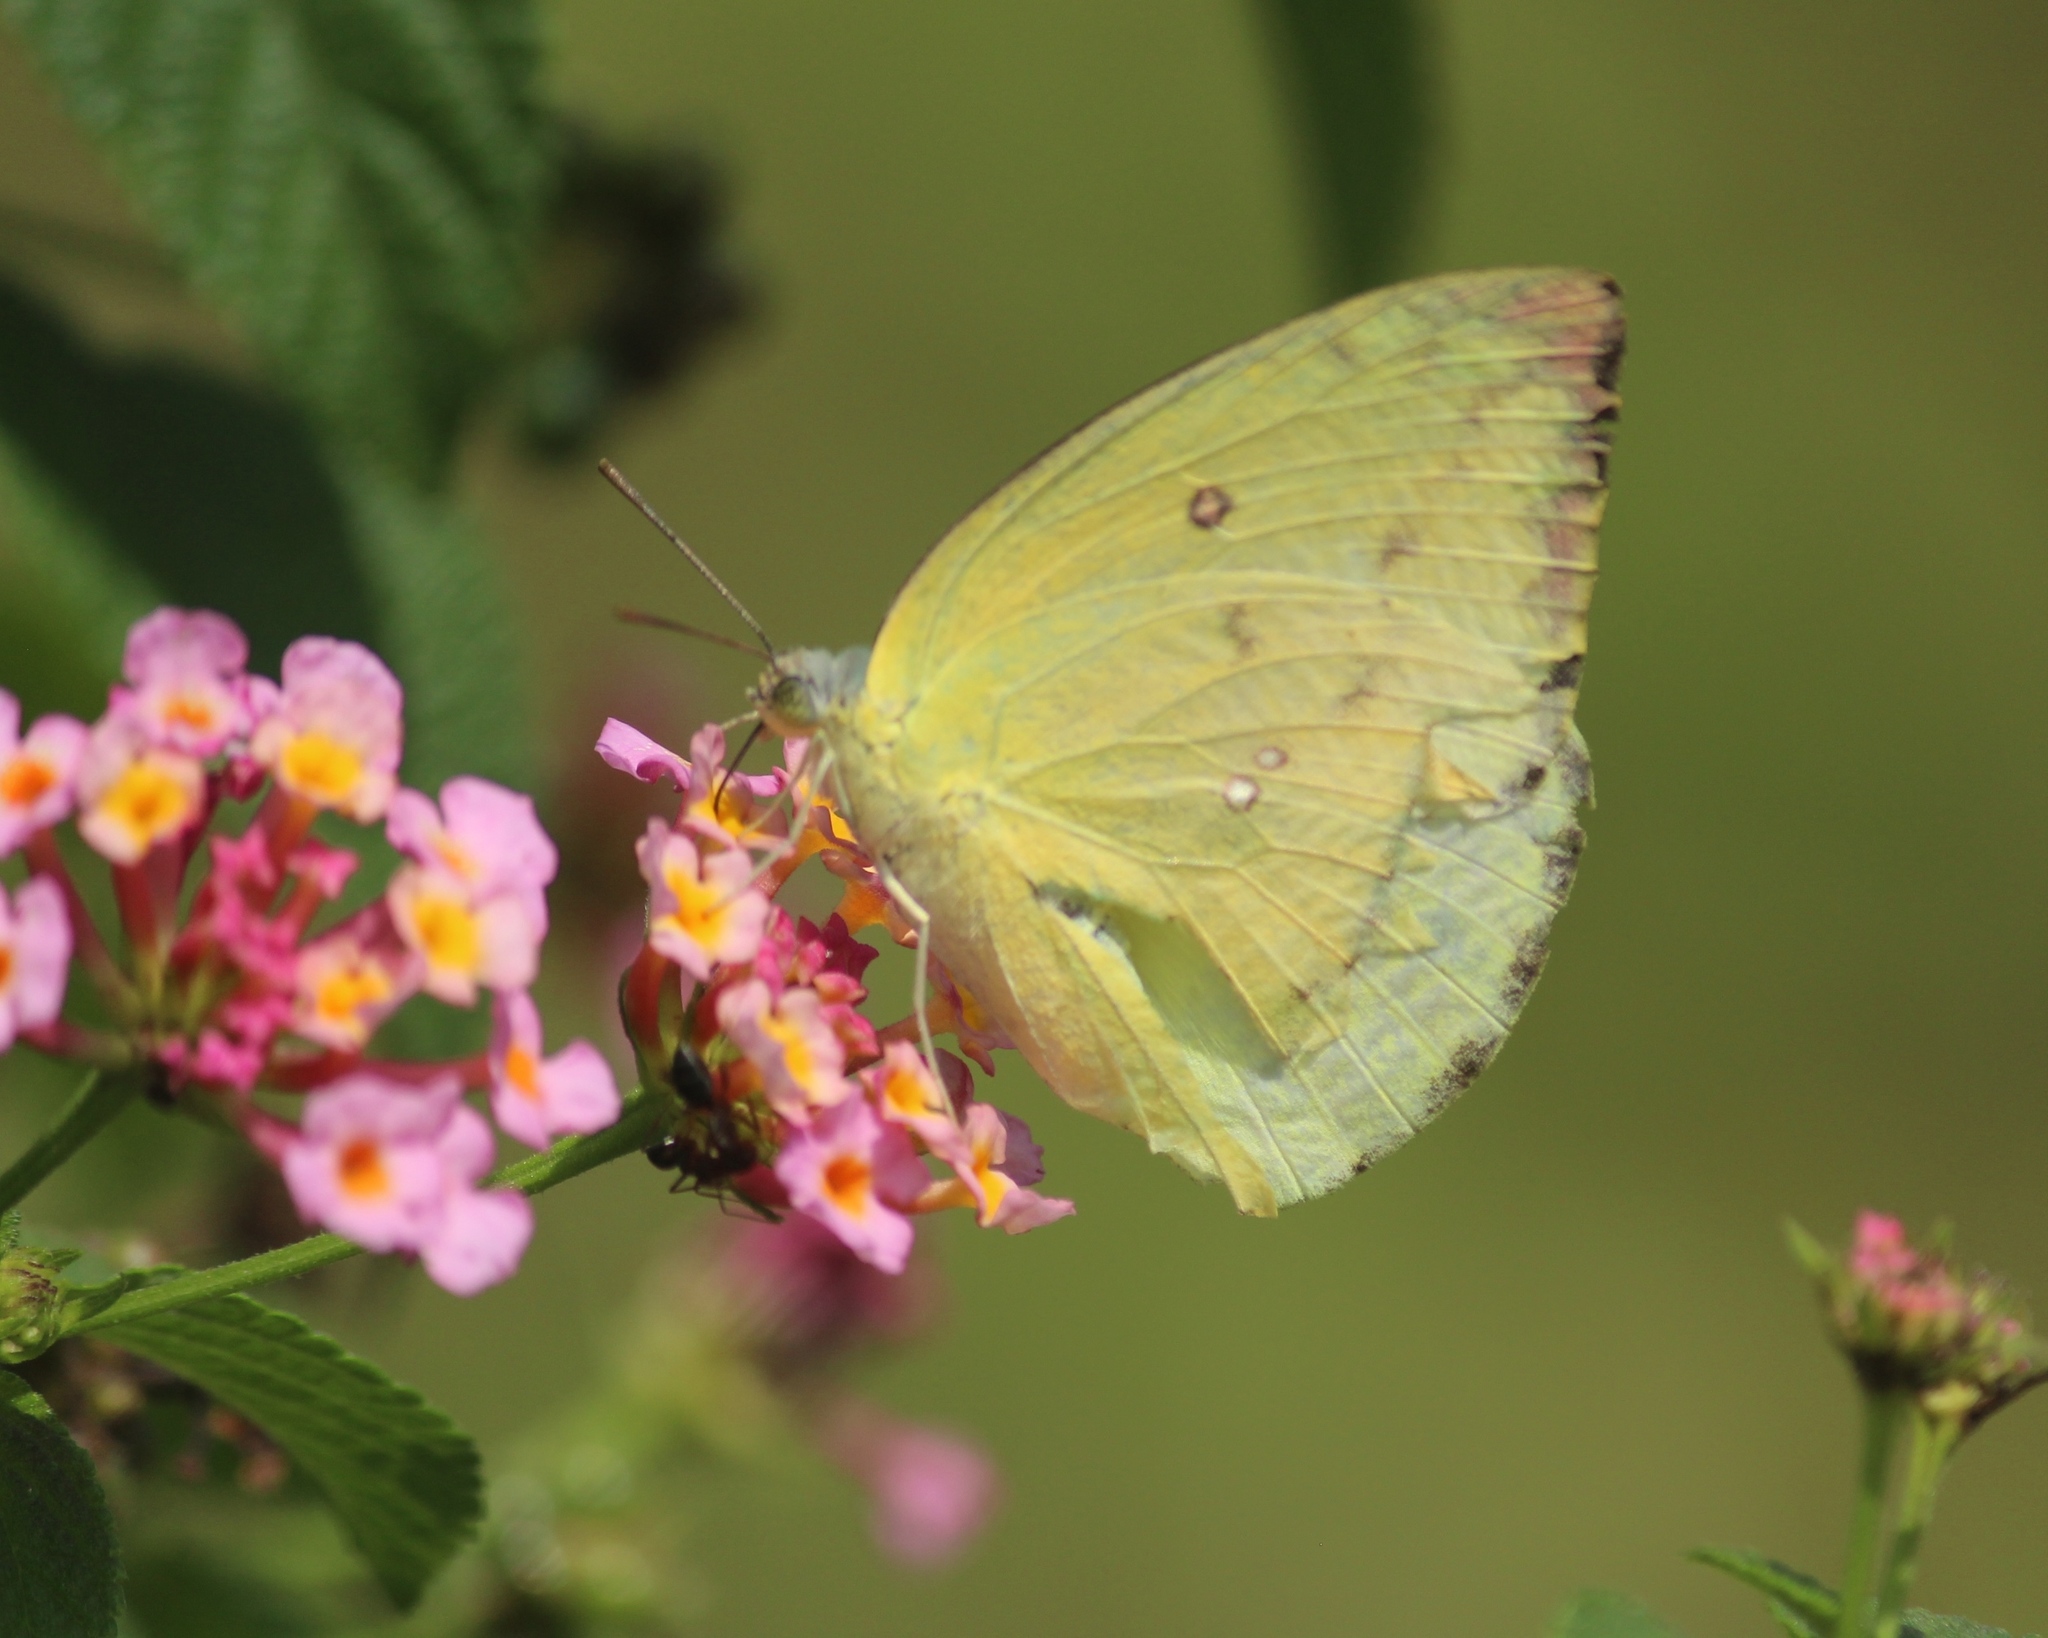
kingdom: Animalia
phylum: Arthropoda
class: Insecta
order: Lepidoptera
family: Pieridae
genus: Catopsilia
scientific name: Catopsilia pomona
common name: Common emigrant
